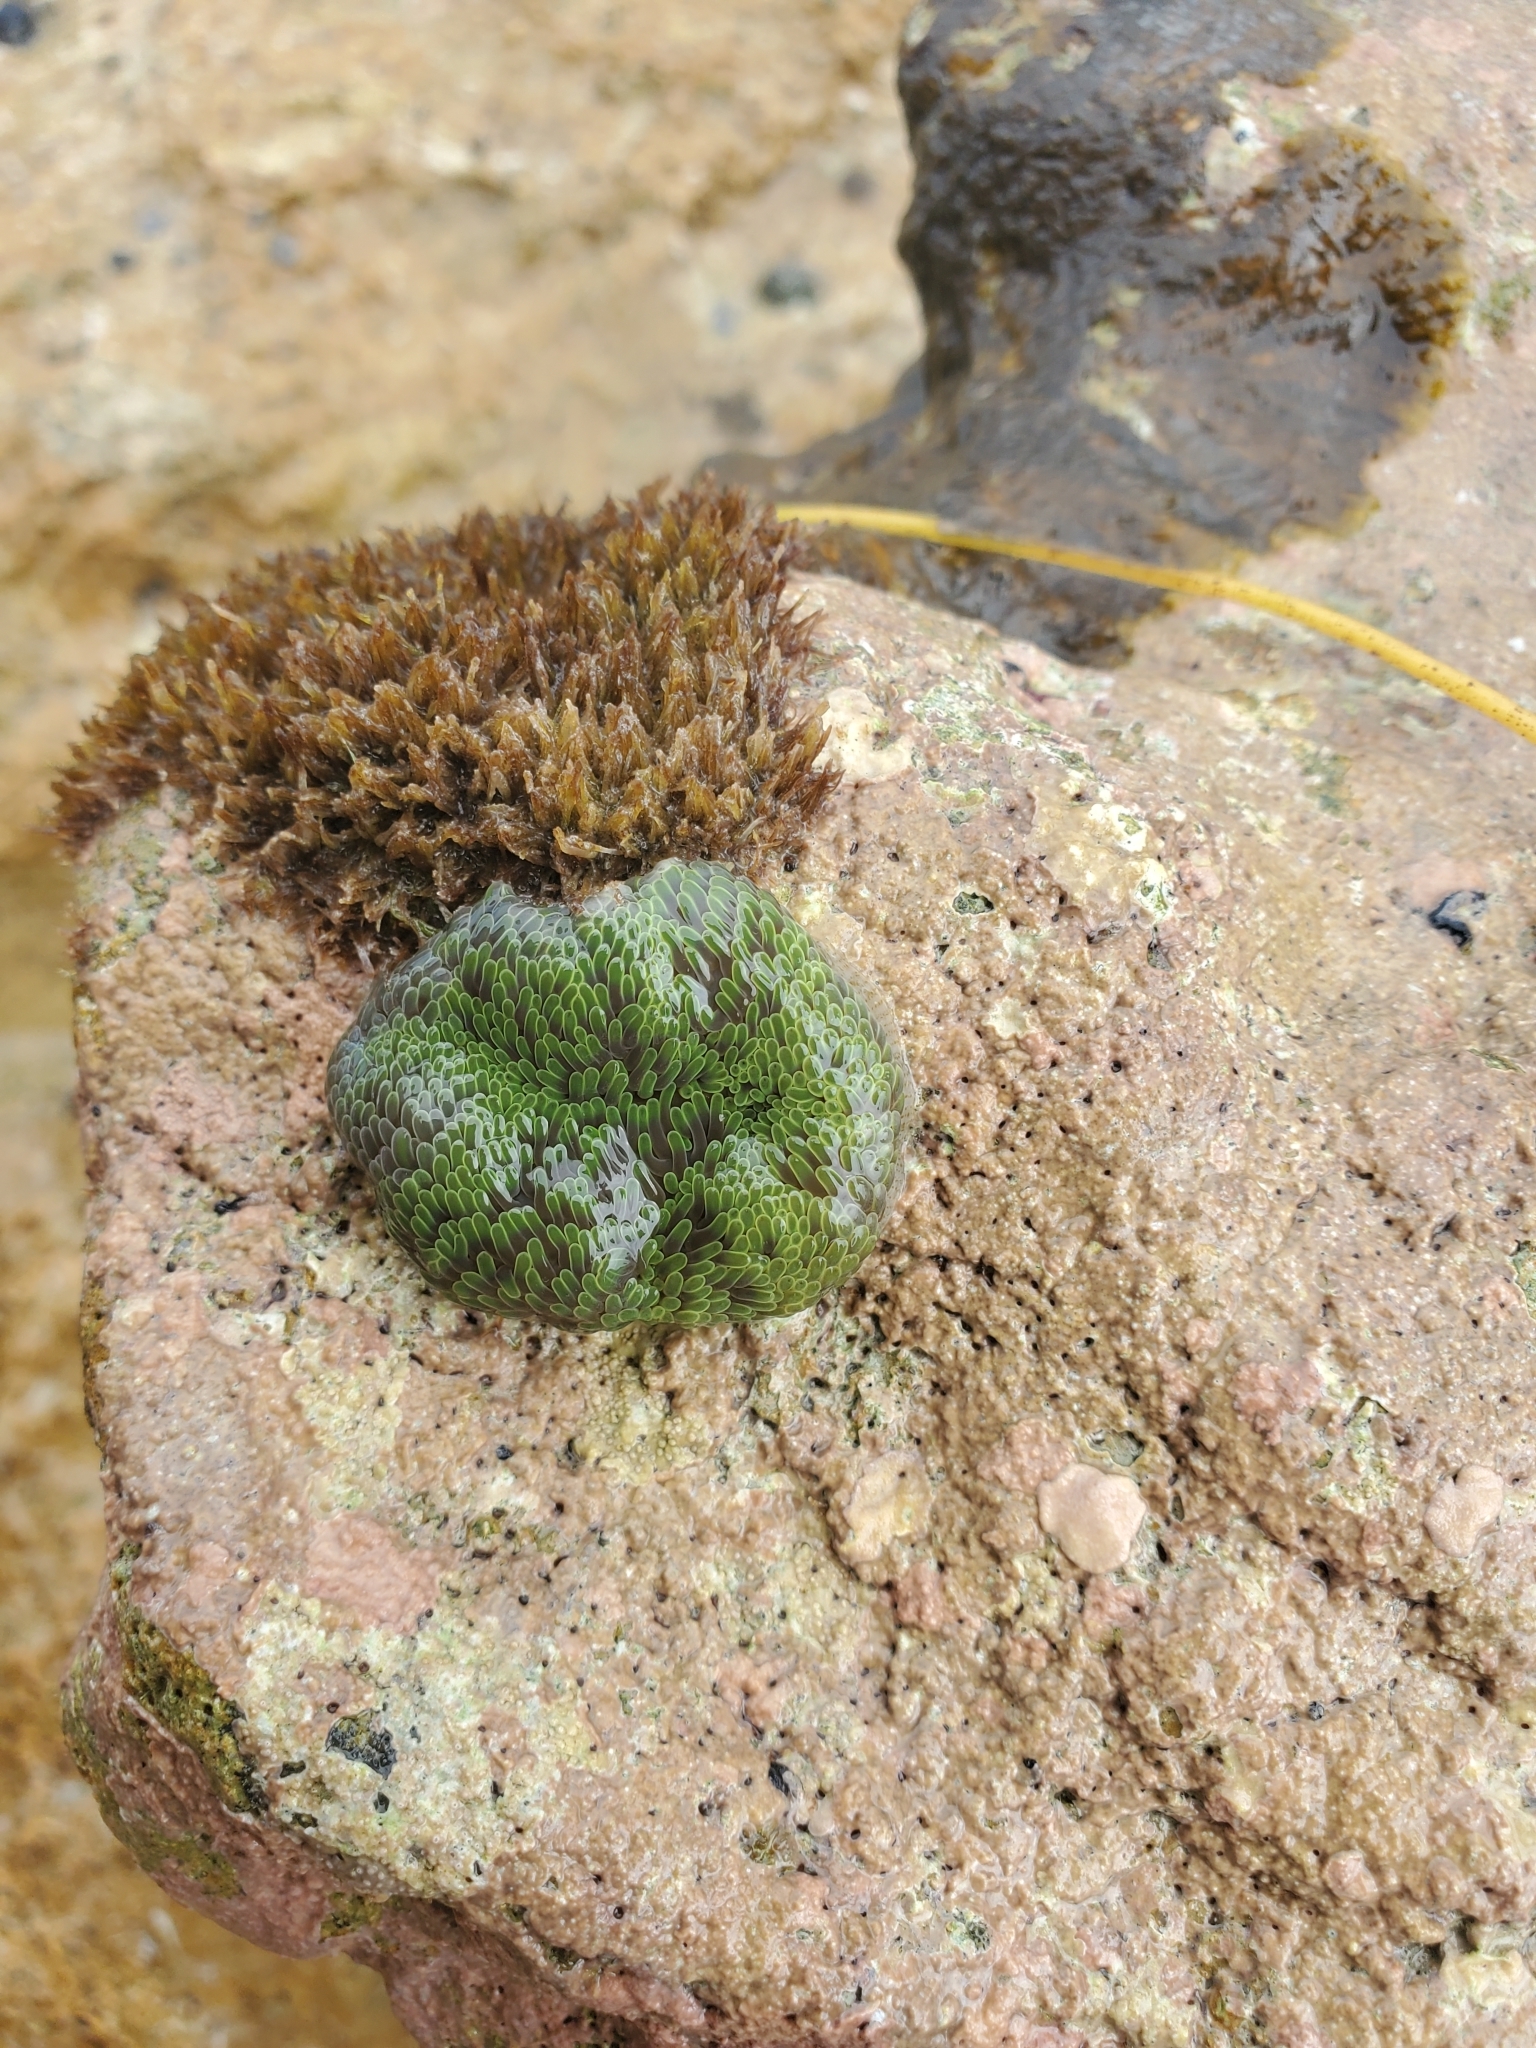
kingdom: Animalia
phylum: Cnidaria
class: Anthozoa
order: Actiniaria
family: Stichodactylidae
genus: Stichodactyla
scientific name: Stichodactyla helianthus
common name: Sun anemone
